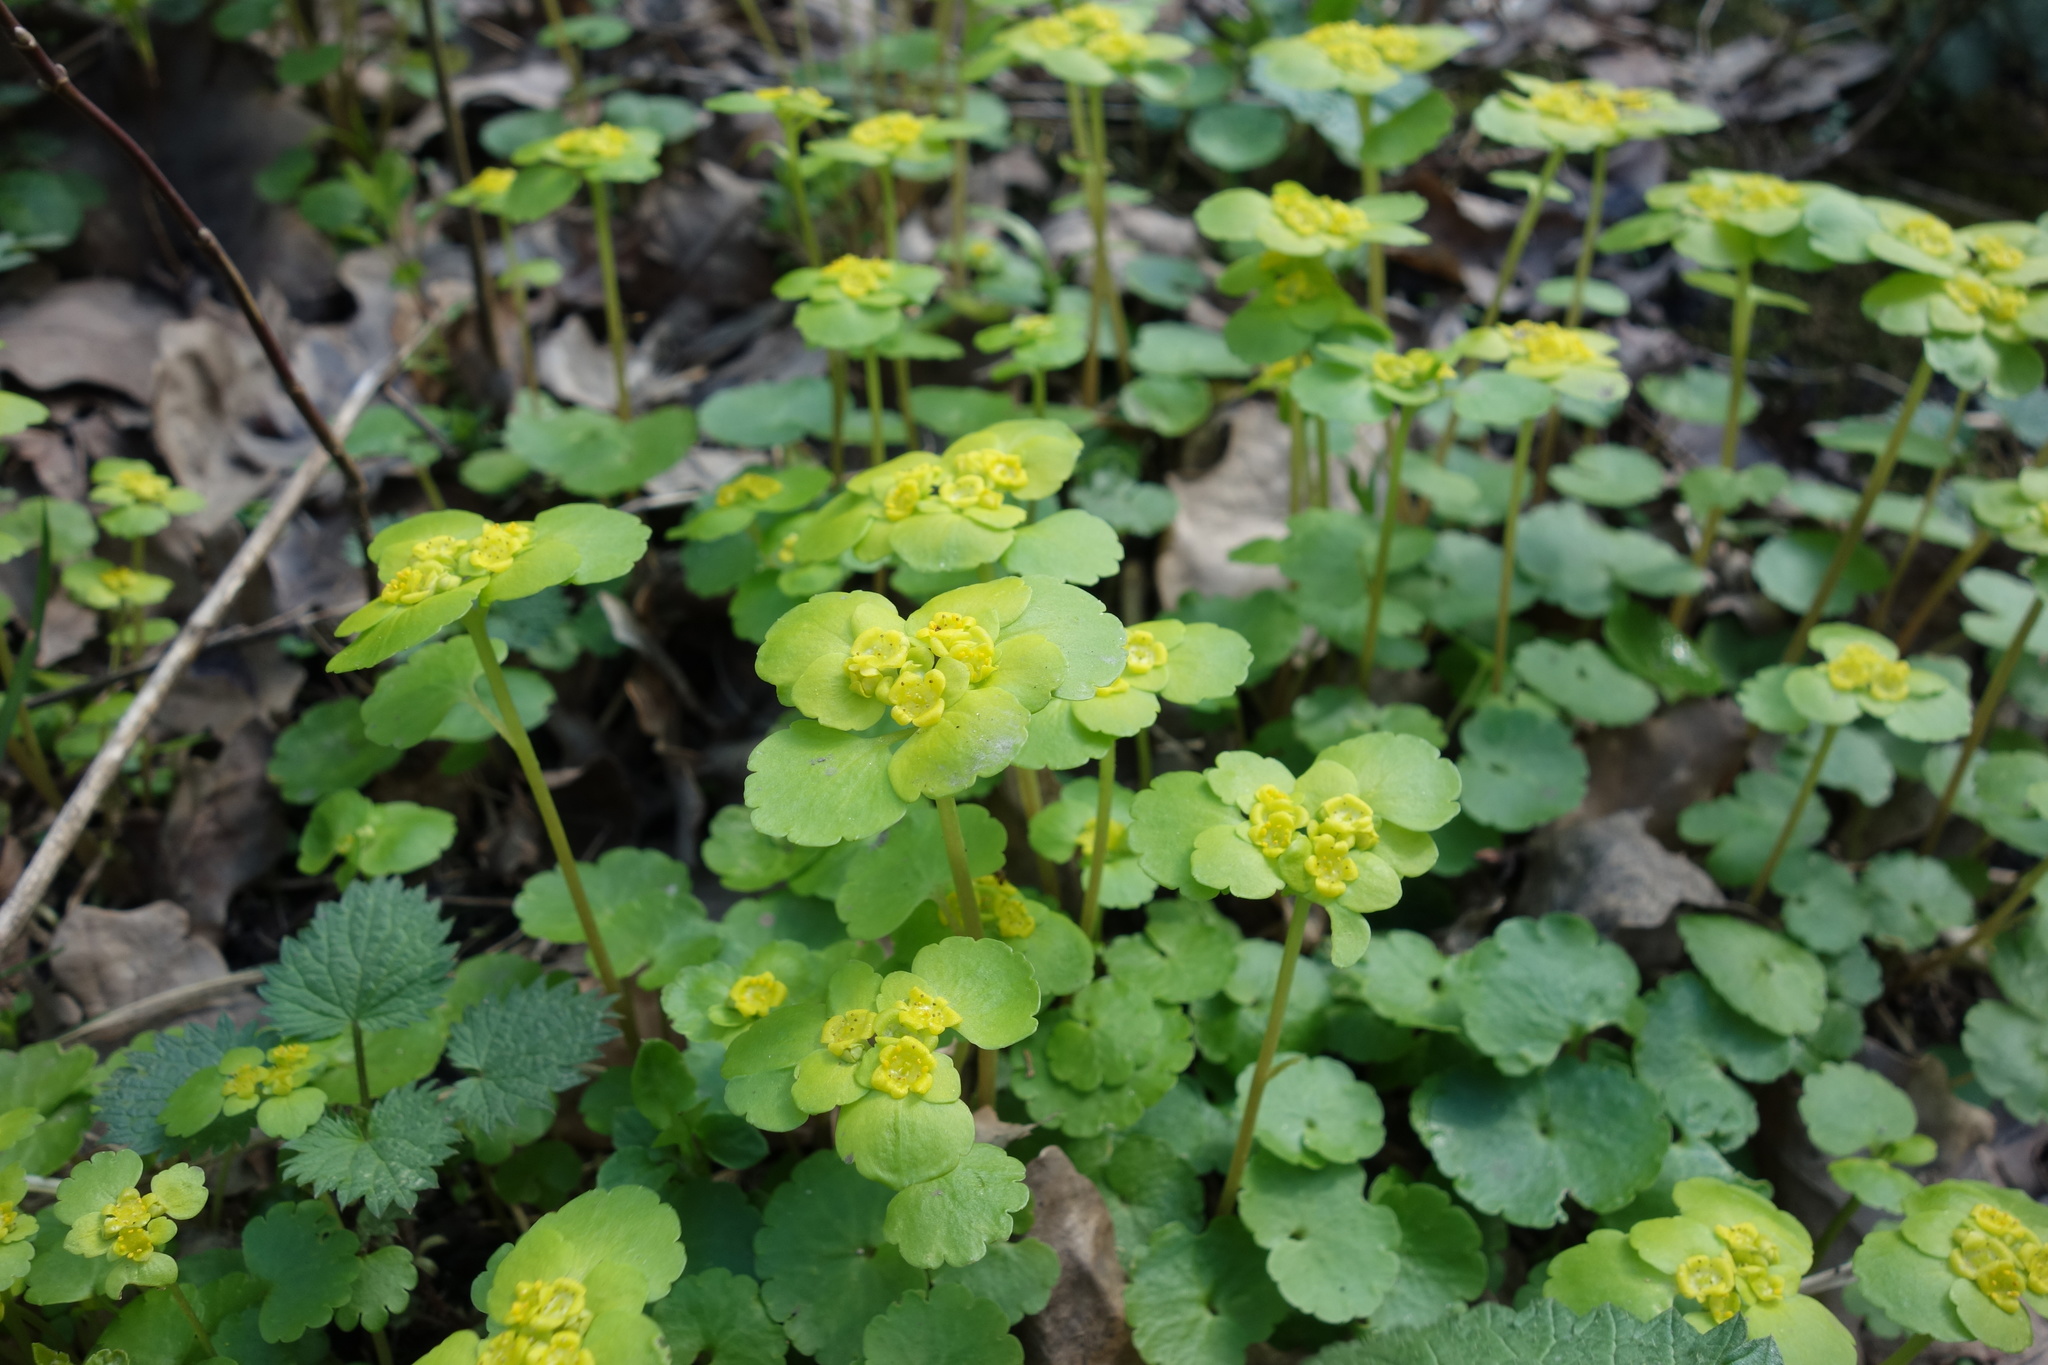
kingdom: Plantae
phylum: Tracheophyta
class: Magnoliopsida
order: Saxifragales
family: Saxifragaceae
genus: Chrysosplenium
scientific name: Chrysosplenium alternifolium
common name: Alternate-leaved golden-saxifrage
